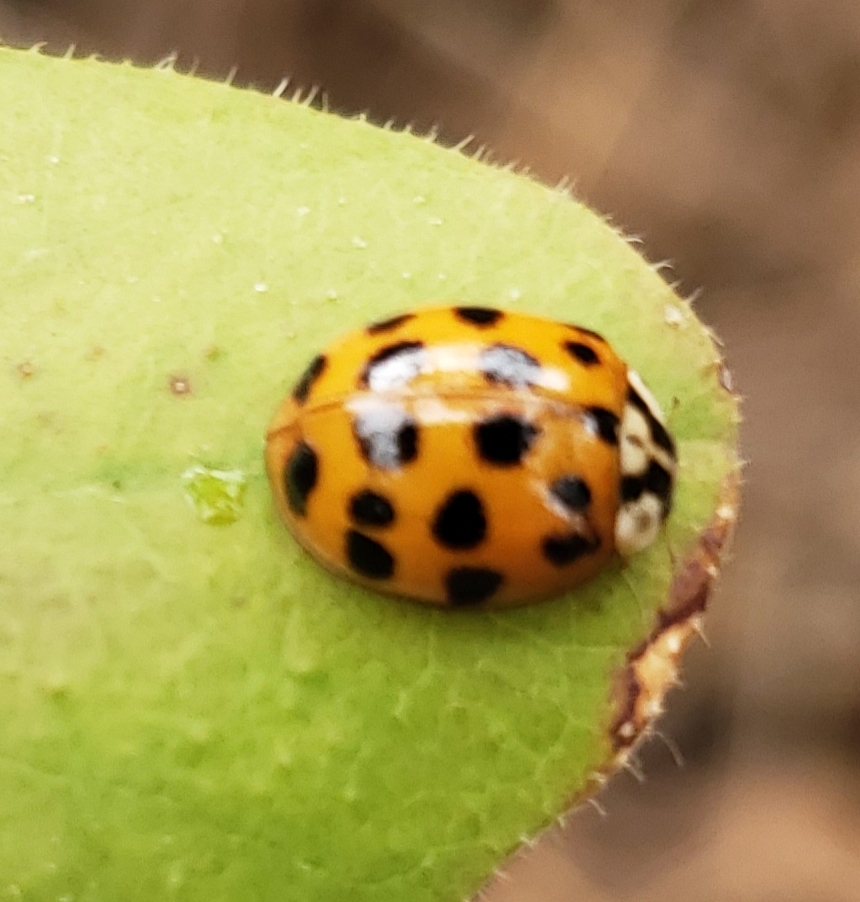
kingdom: Animalia
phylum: Arthropoda
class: Insecta
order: Coleoptera
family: Coccinellidae
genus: Harmonia
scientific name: Harmonia axyridis
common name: Harlequin ladybird
